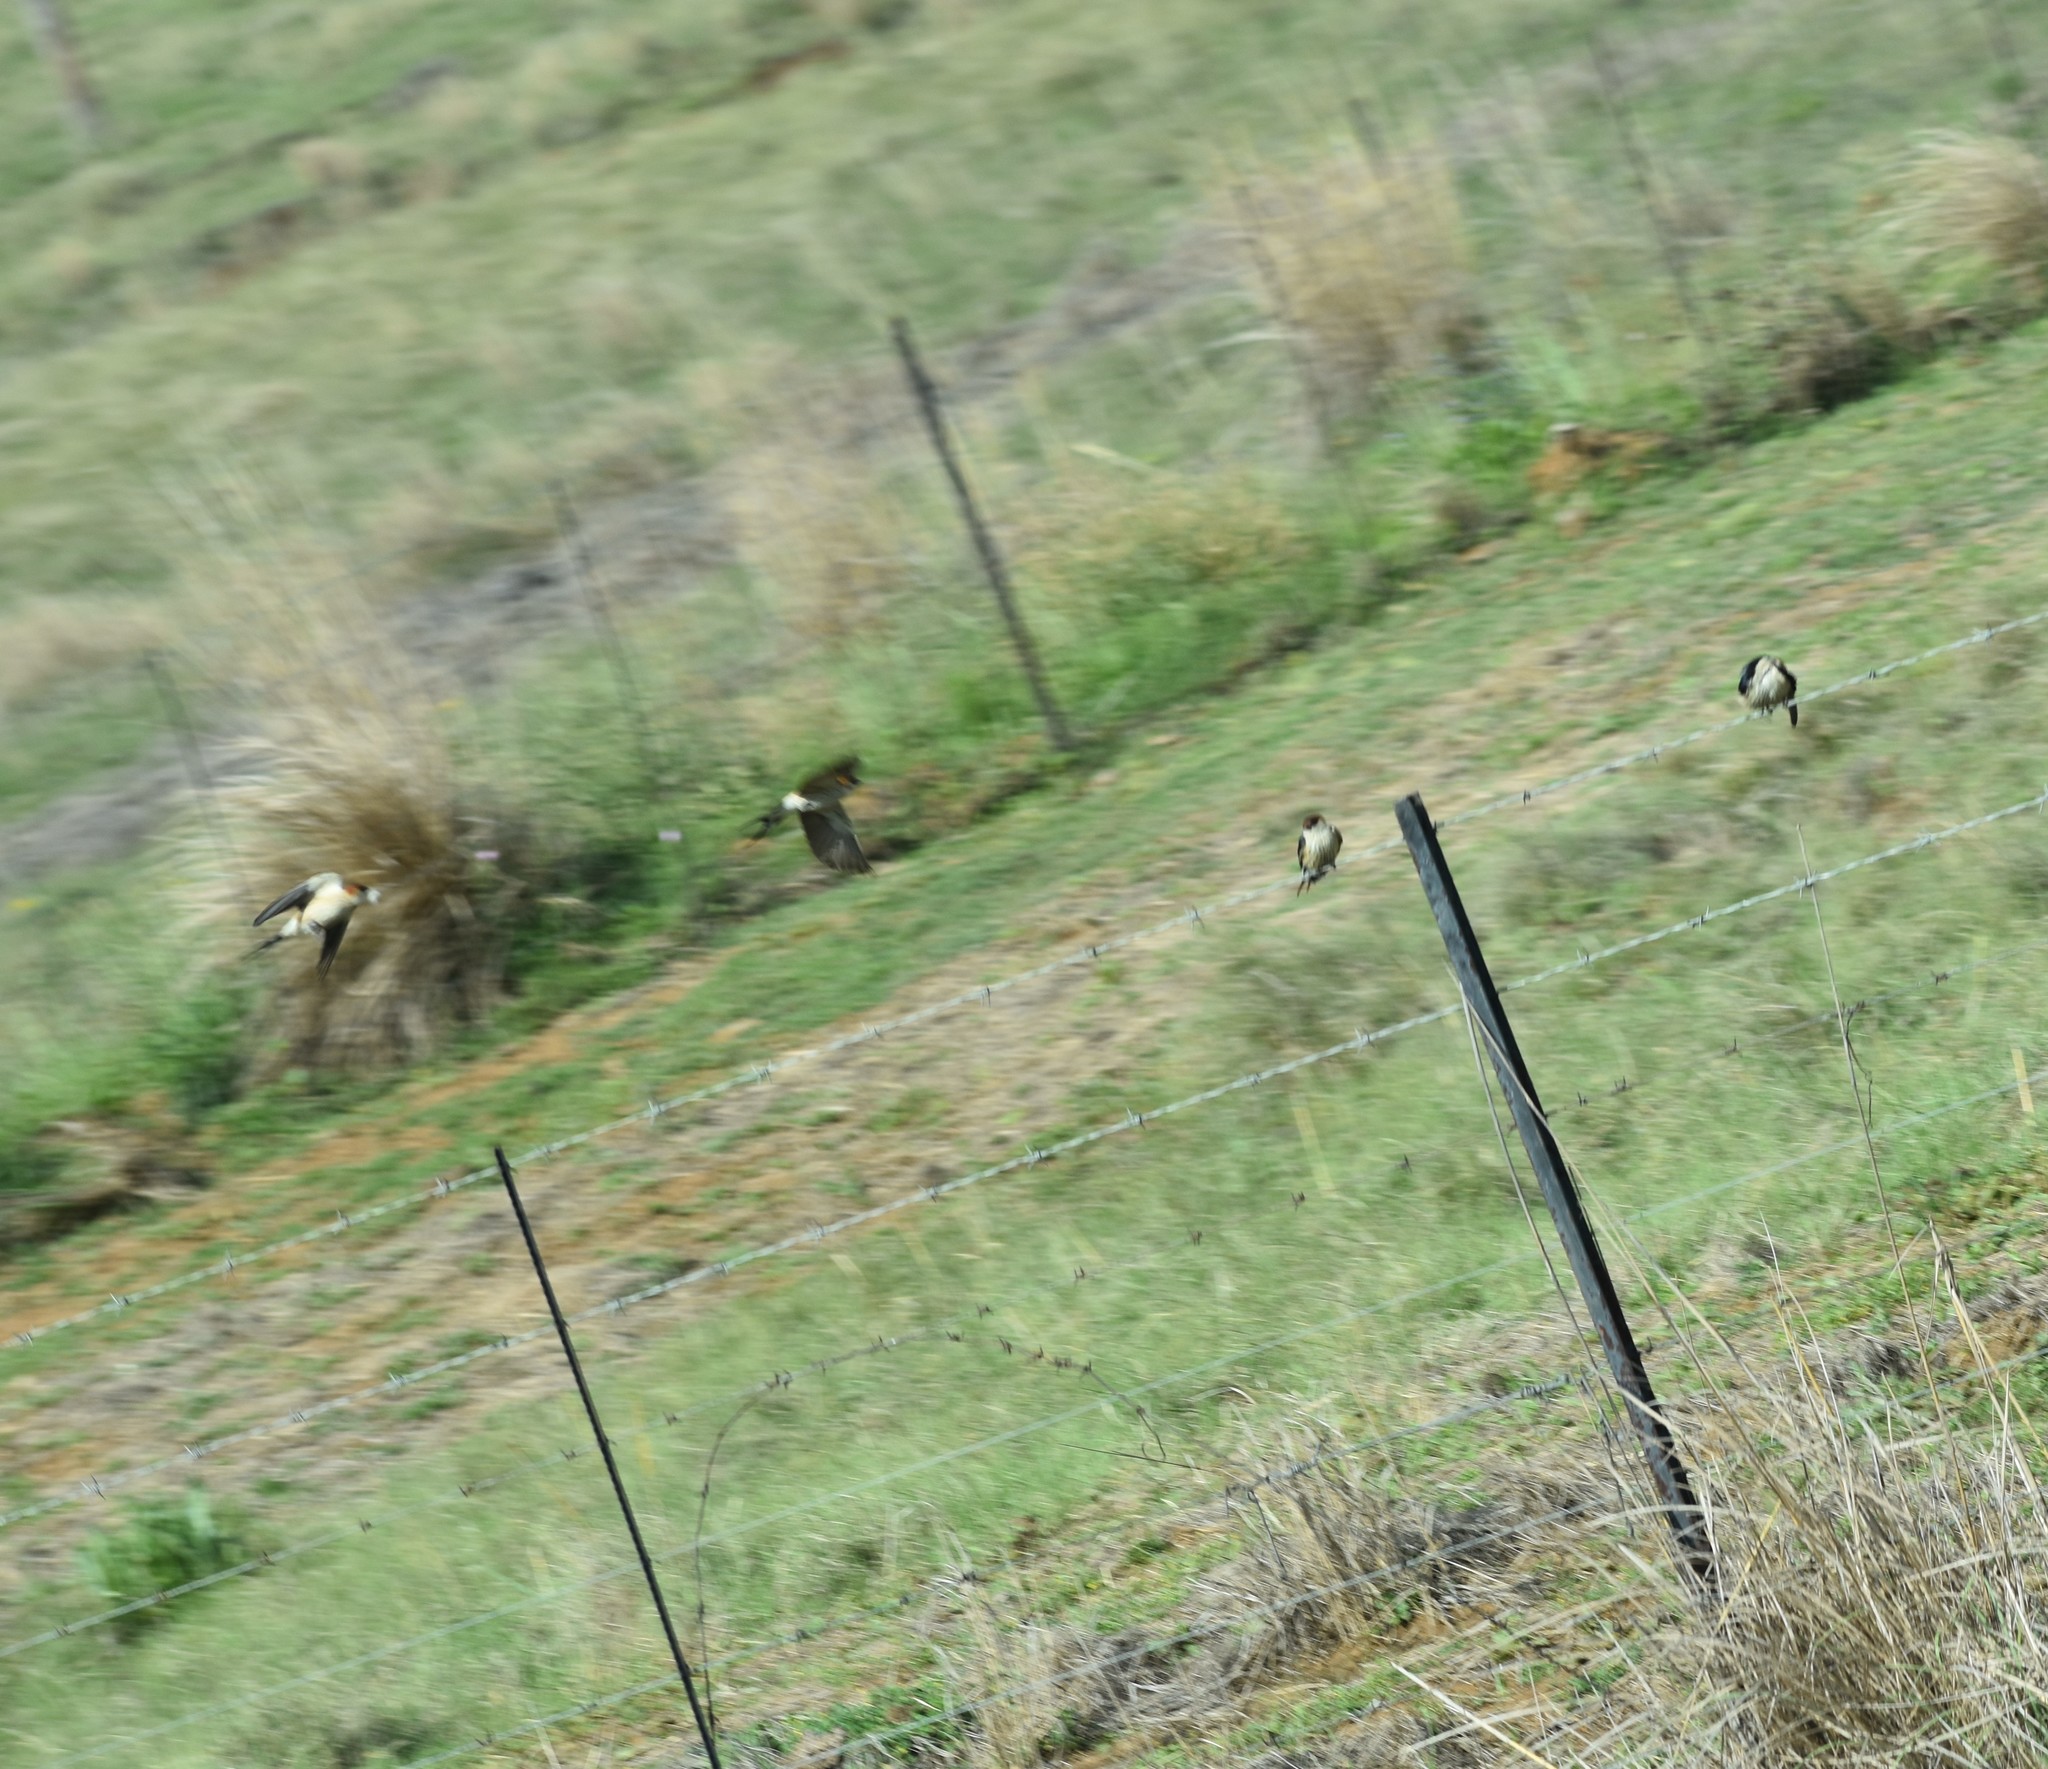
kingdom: Animalia
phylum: Chordata
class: Aves
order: Passeriformes
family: Hirundinidae
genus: Cecropis
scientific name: Cecropis cucullata
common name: Greater striped-swallow
